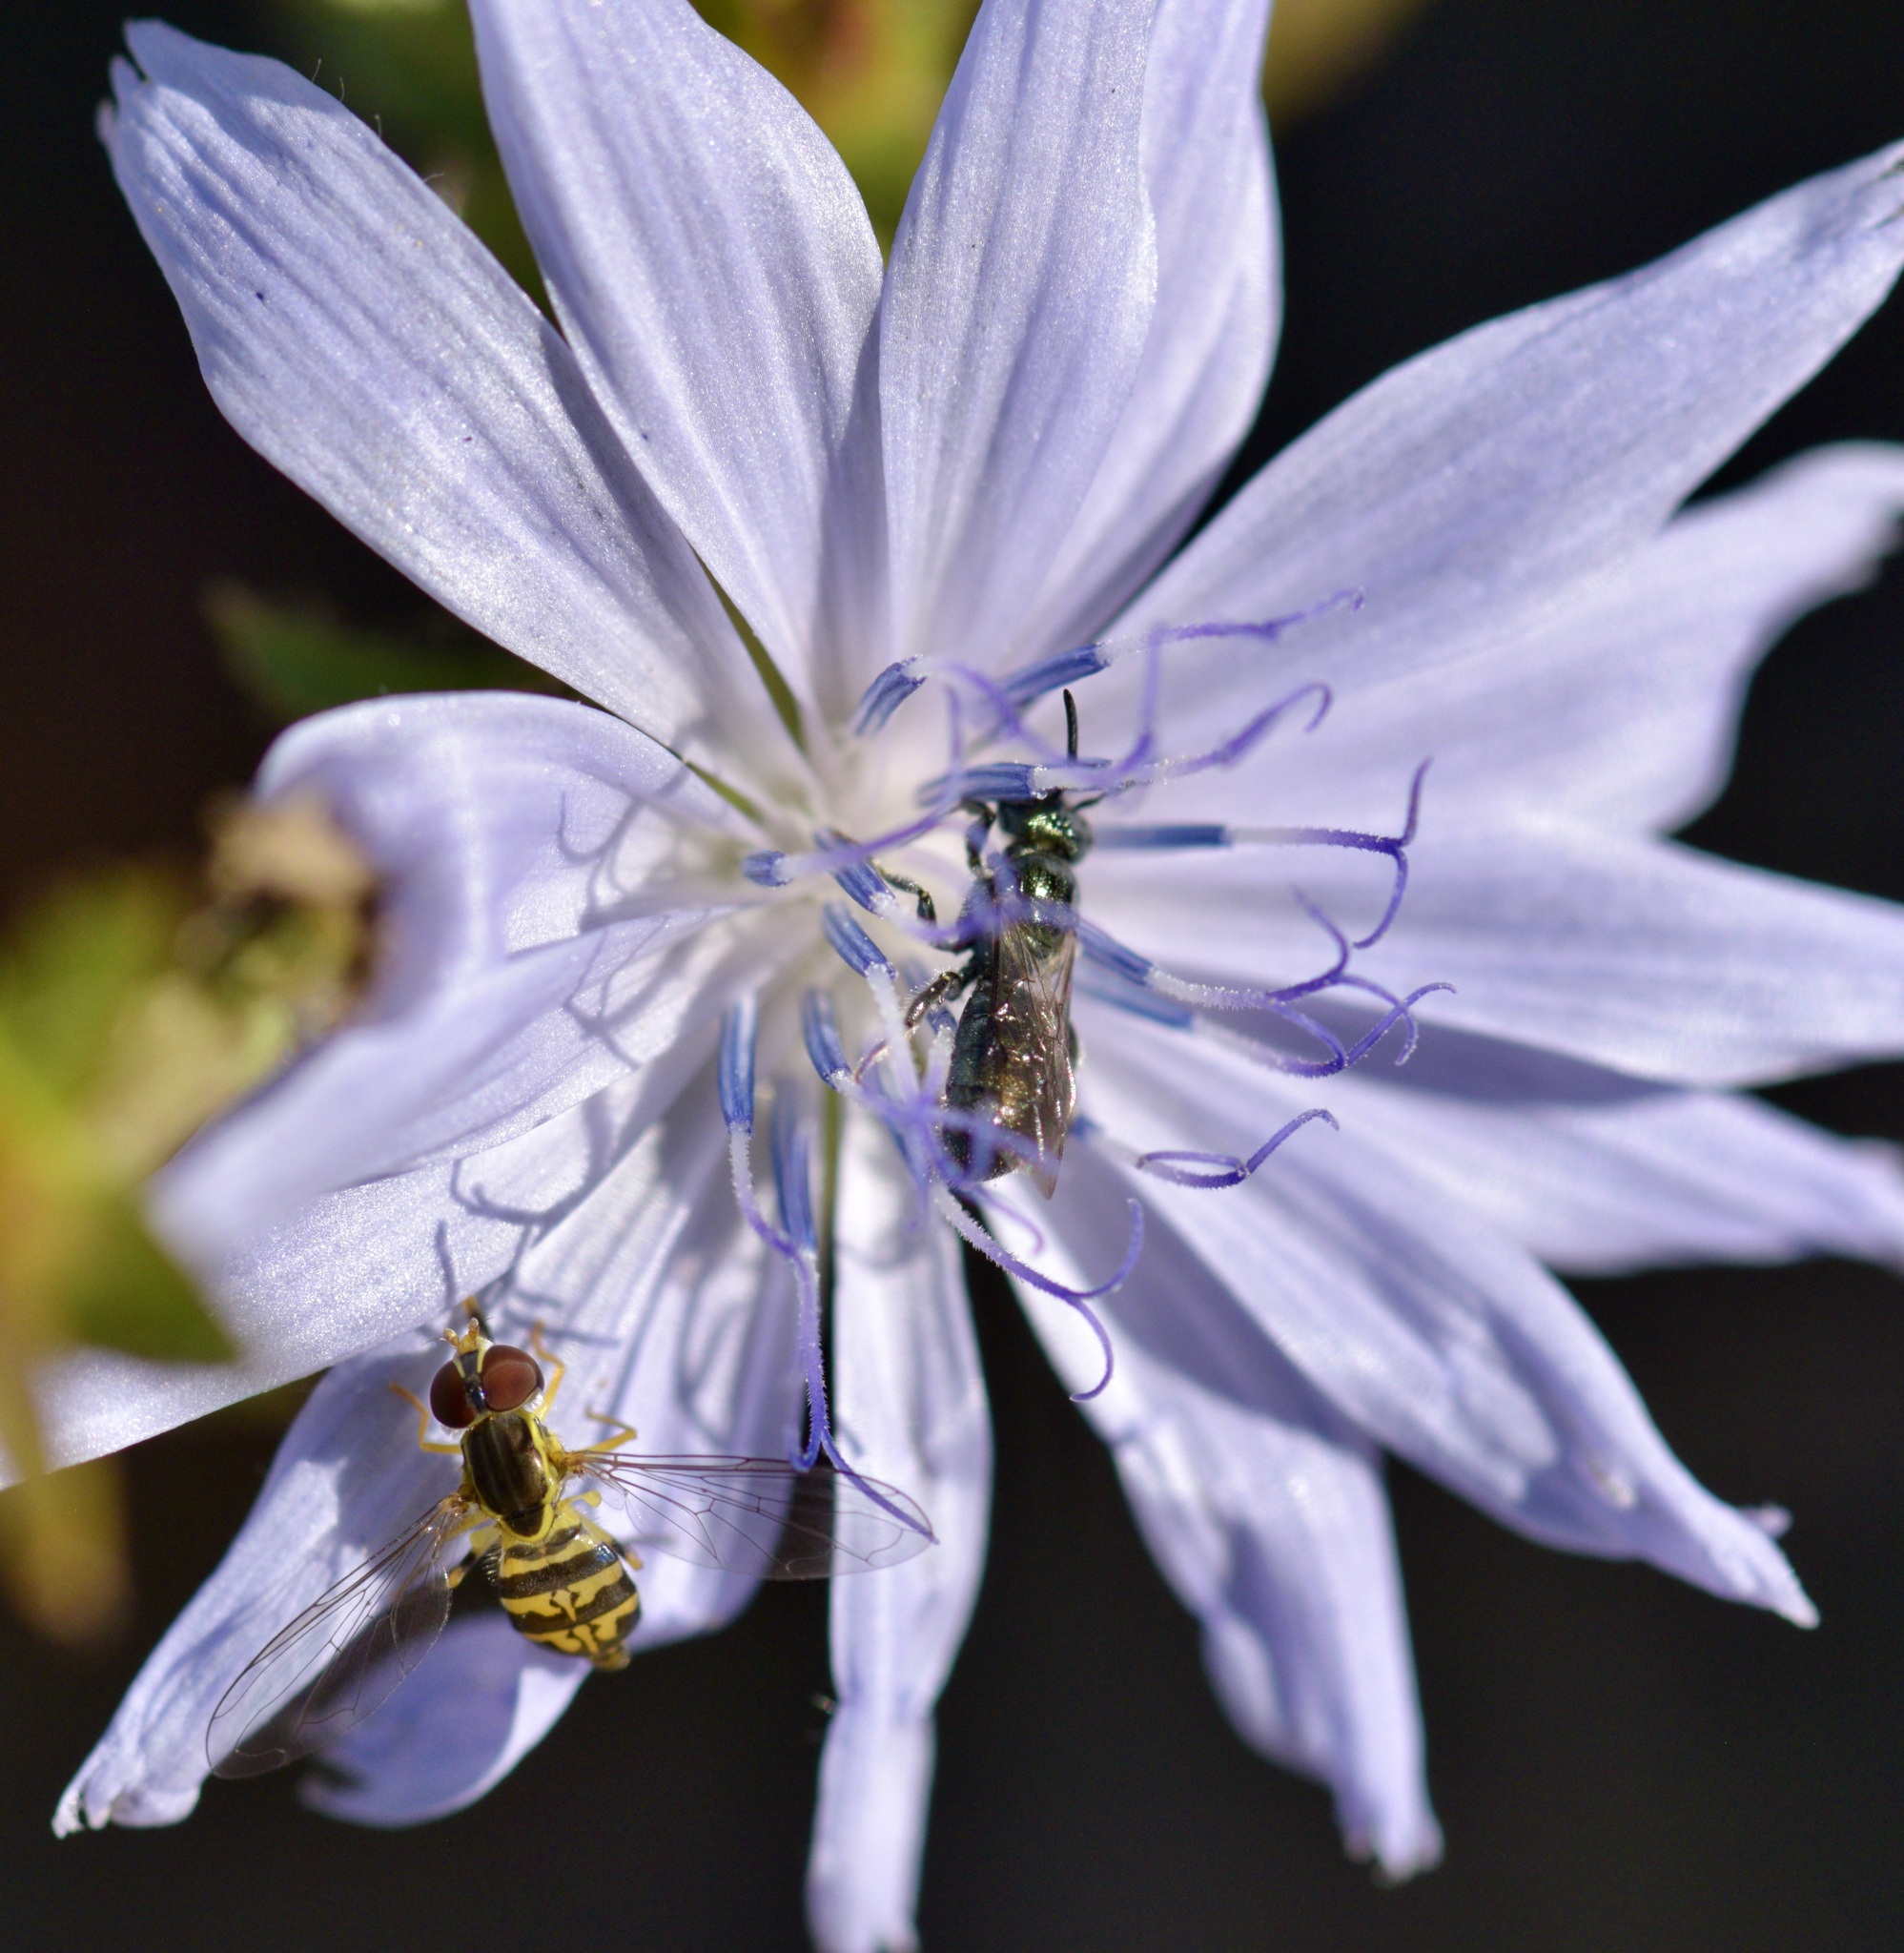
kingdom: Animalia
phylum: Arthropoda
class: Insecta
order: Diptera
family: Syrphidae
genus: Toxomerus
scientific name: Toxomerus geminatus
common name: Eastern calligrapher
